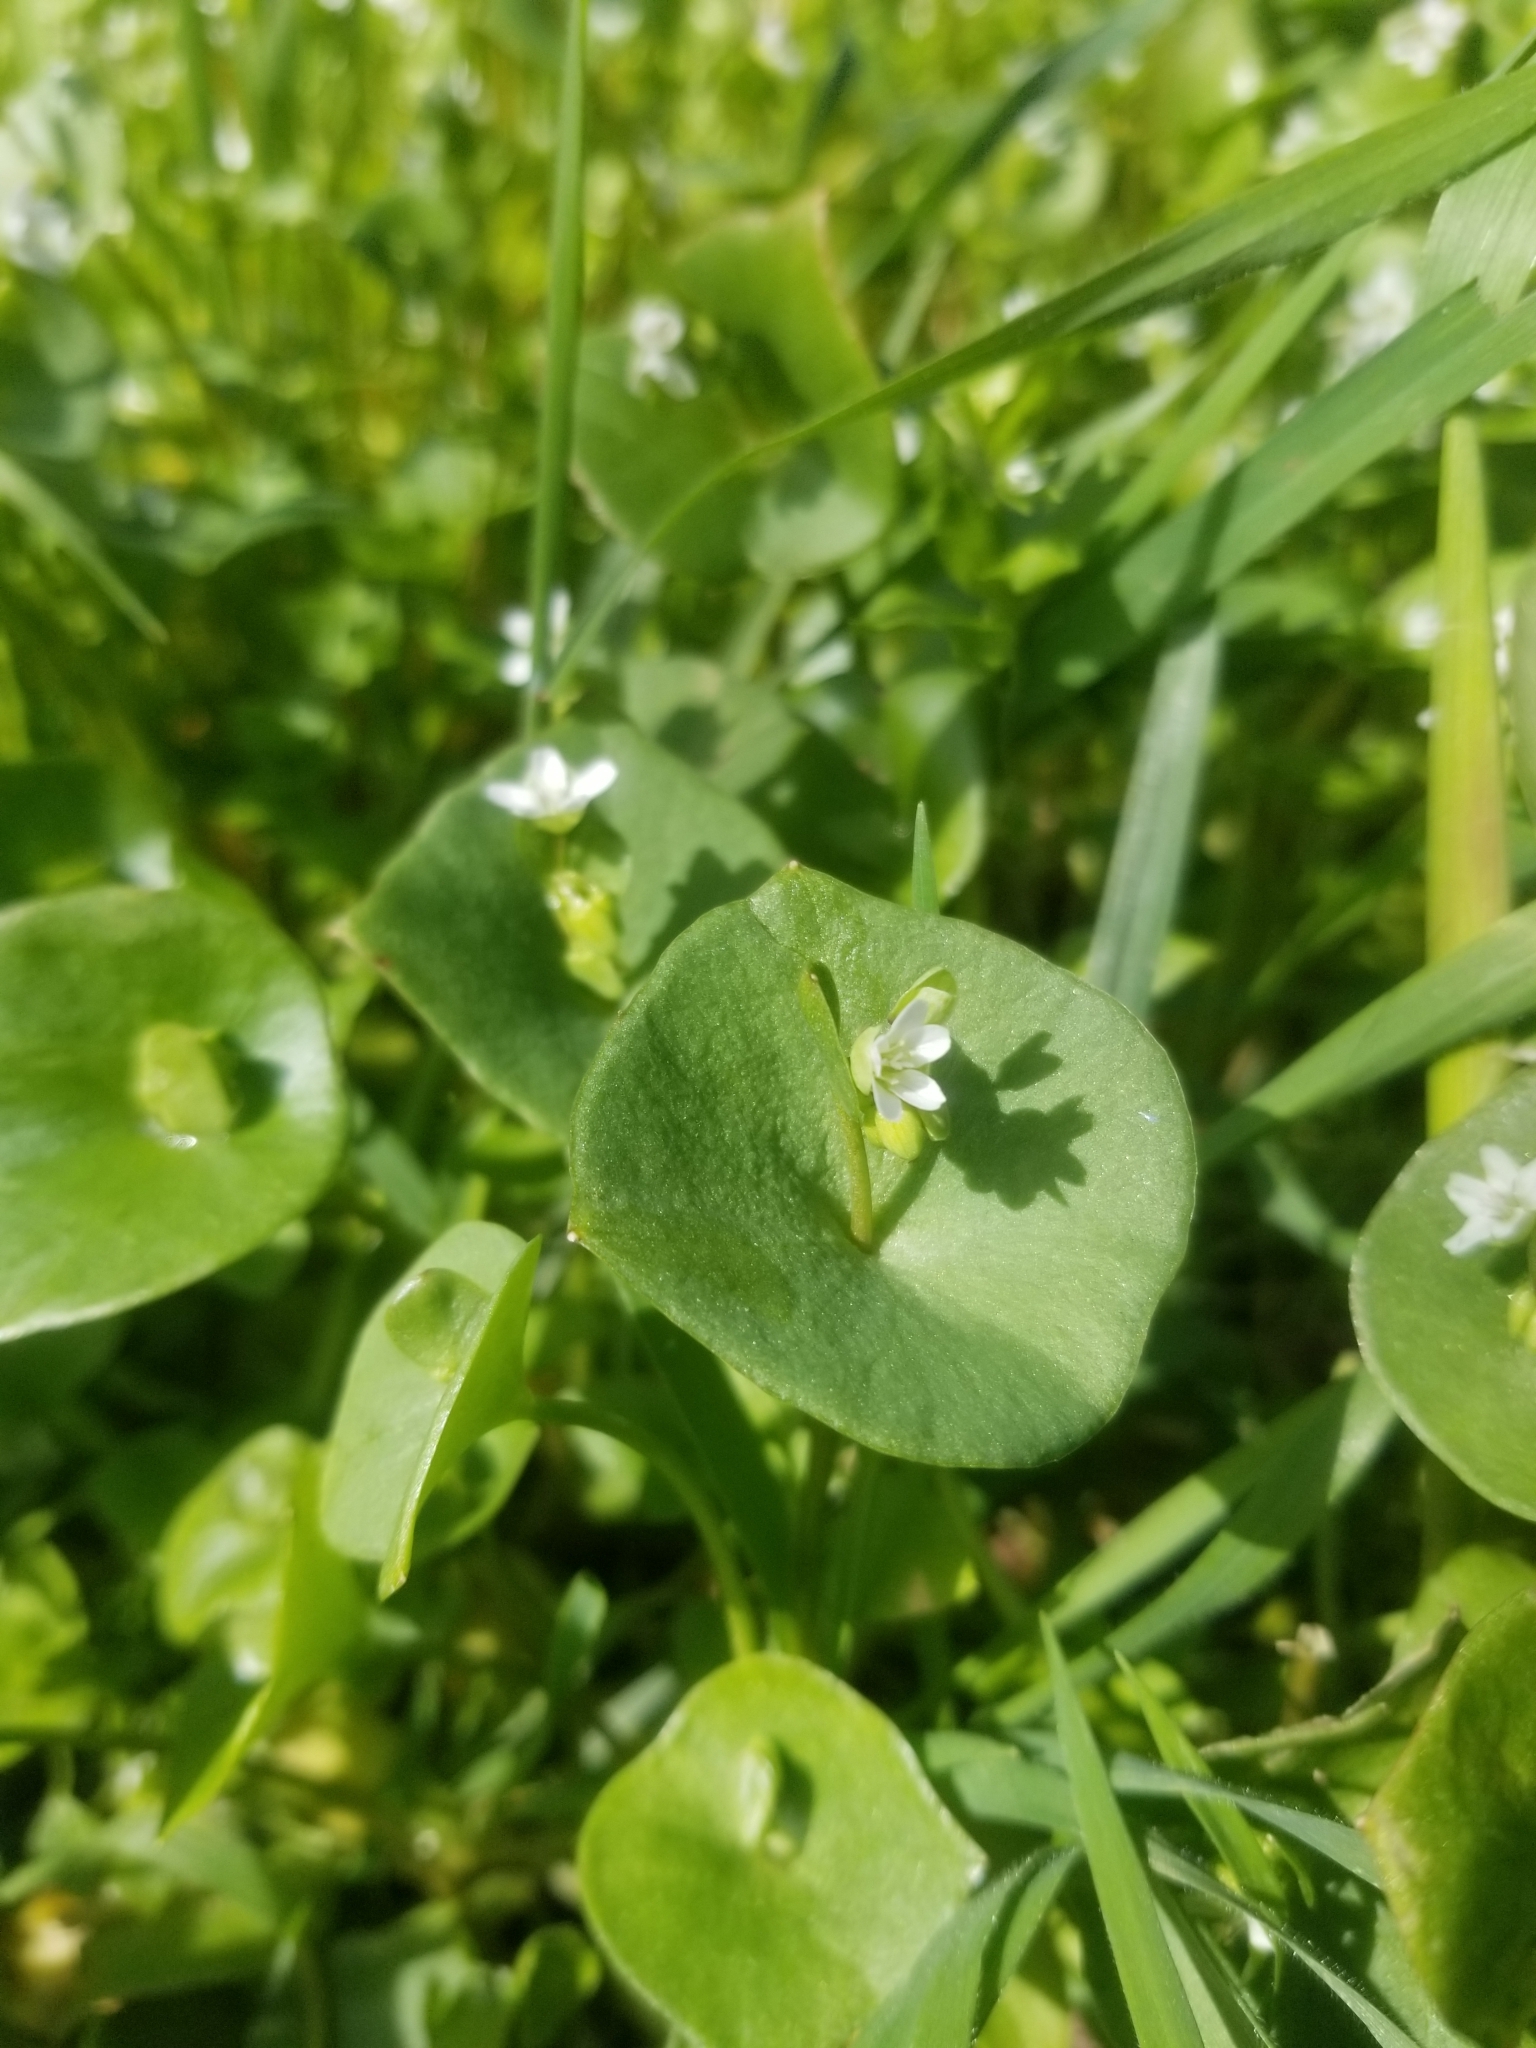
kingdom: Plantae
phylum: Tracheophyta
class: Magnoliopsida
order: Caryophyllales
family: Montiaceae
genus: Claytonia
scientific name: Claytonia perfoliata
